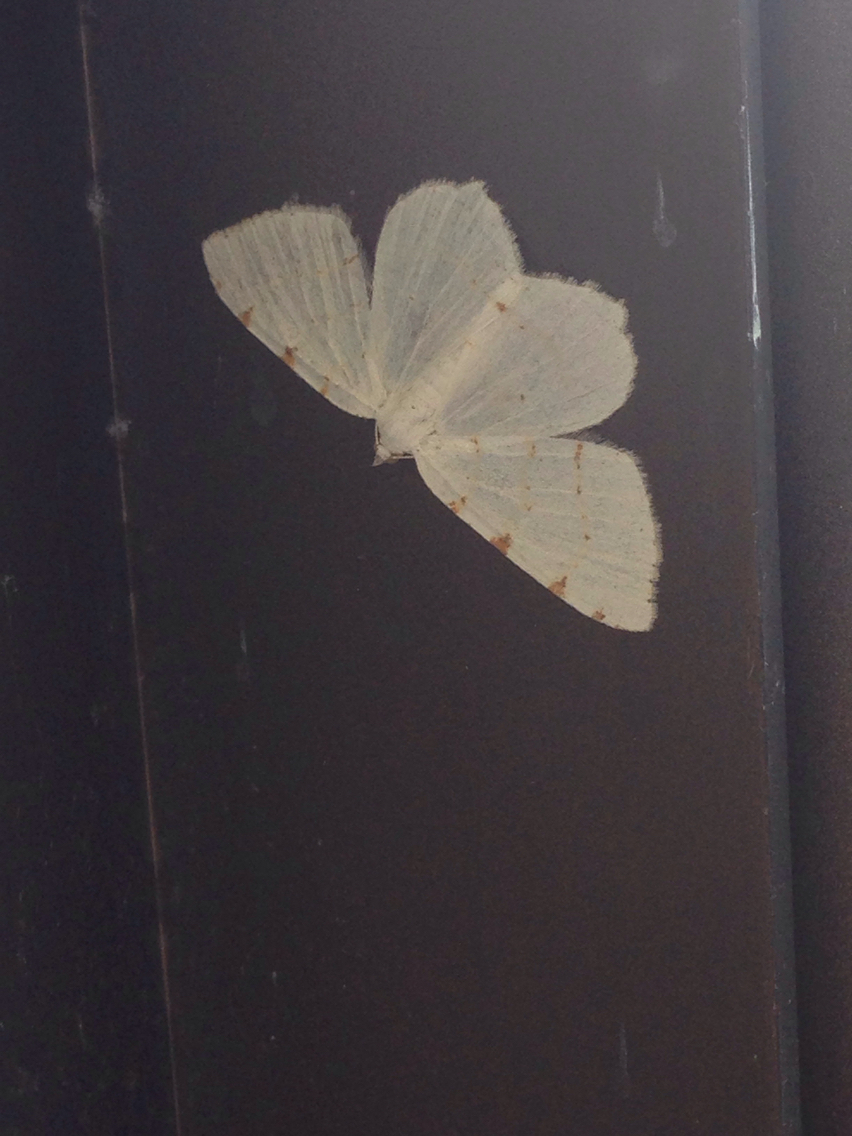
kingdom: Animalia
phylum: Arthropoda
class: Insecta
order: Lepidoptera
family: Geometridae
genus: Macaria
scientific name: Macaria pustularia
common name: Lesser maple spanworm moth
